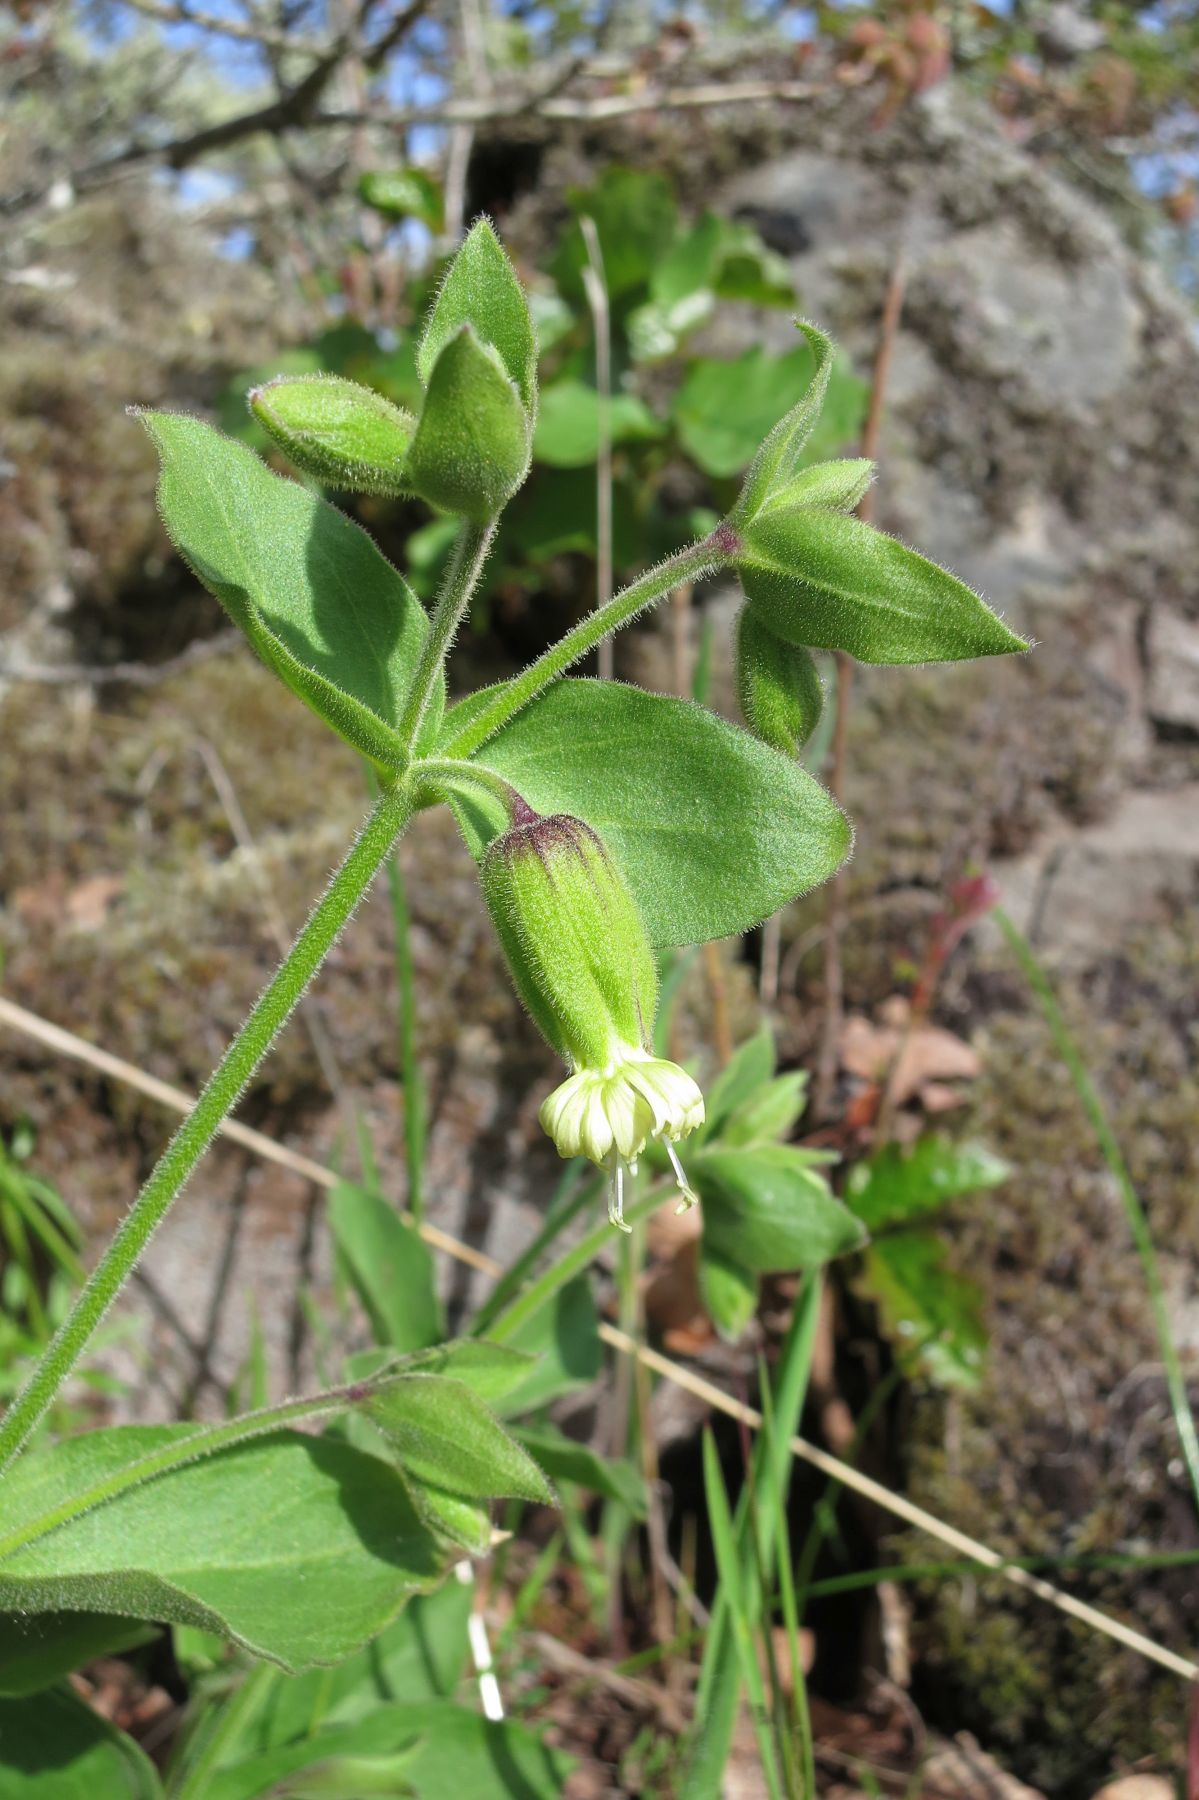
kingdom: Plantae
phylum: Tracheophyta
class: Magnoliopsida
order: Caryophyllales
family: Caryophyllaceae
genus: Silene
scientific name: Silene greenei
